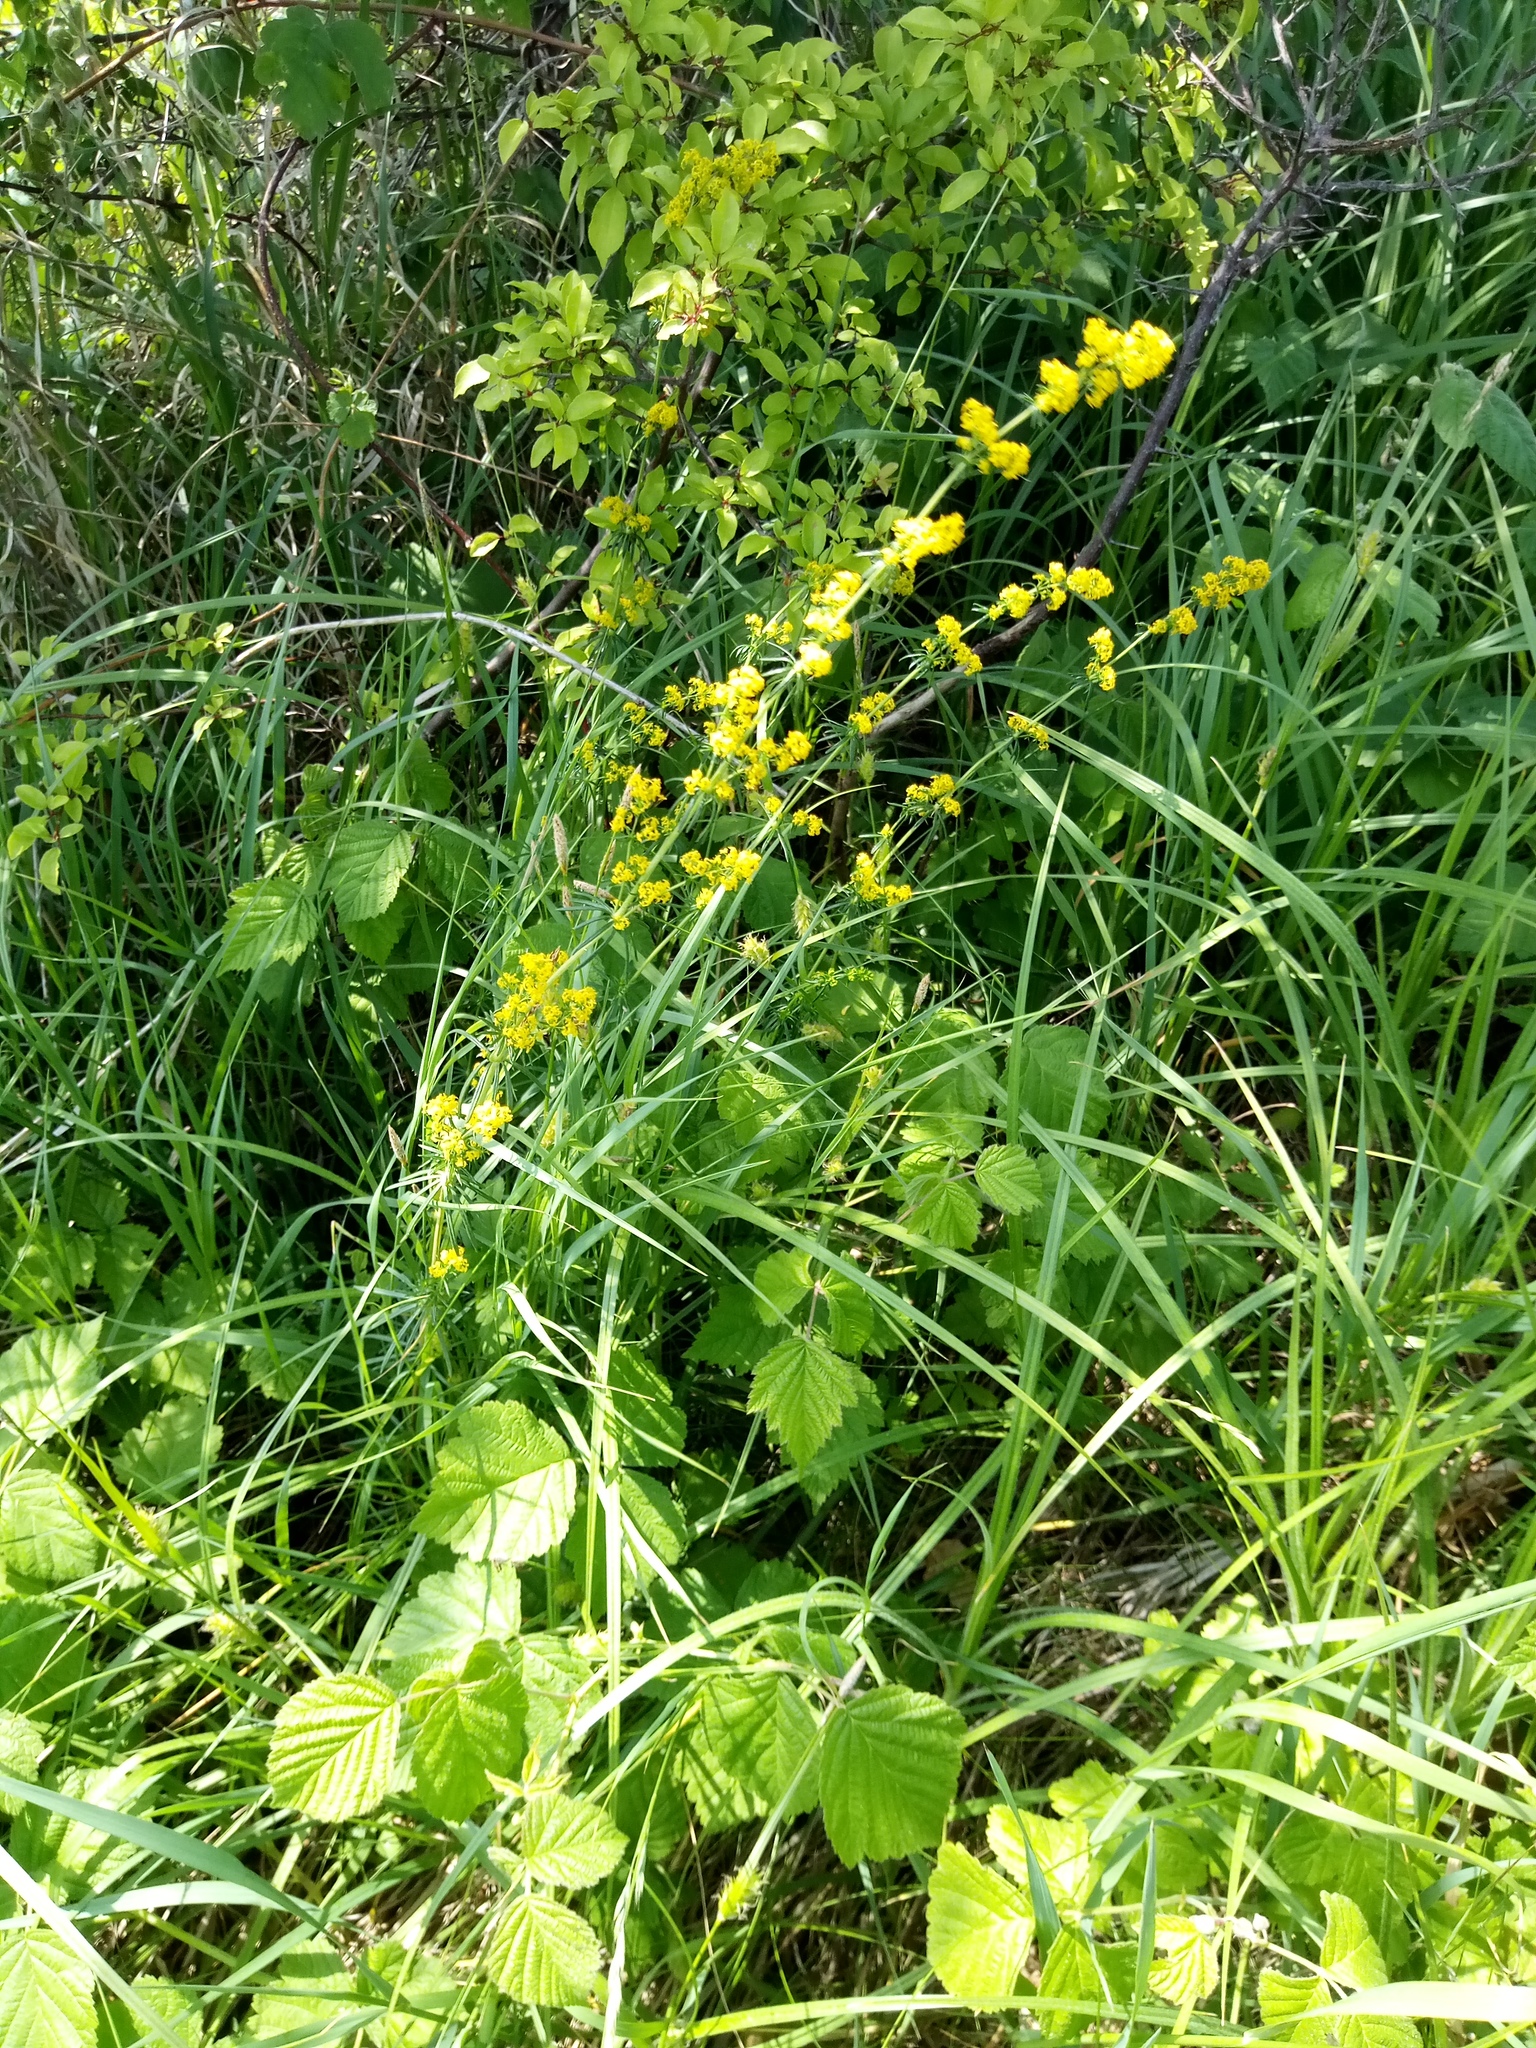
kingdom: Plantae
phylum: Tracheophyta
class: Magnoliopsida
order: Gentianales
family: Rubiaceae
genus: Galium
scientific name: Galium verum
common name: Lady's bedstraw
